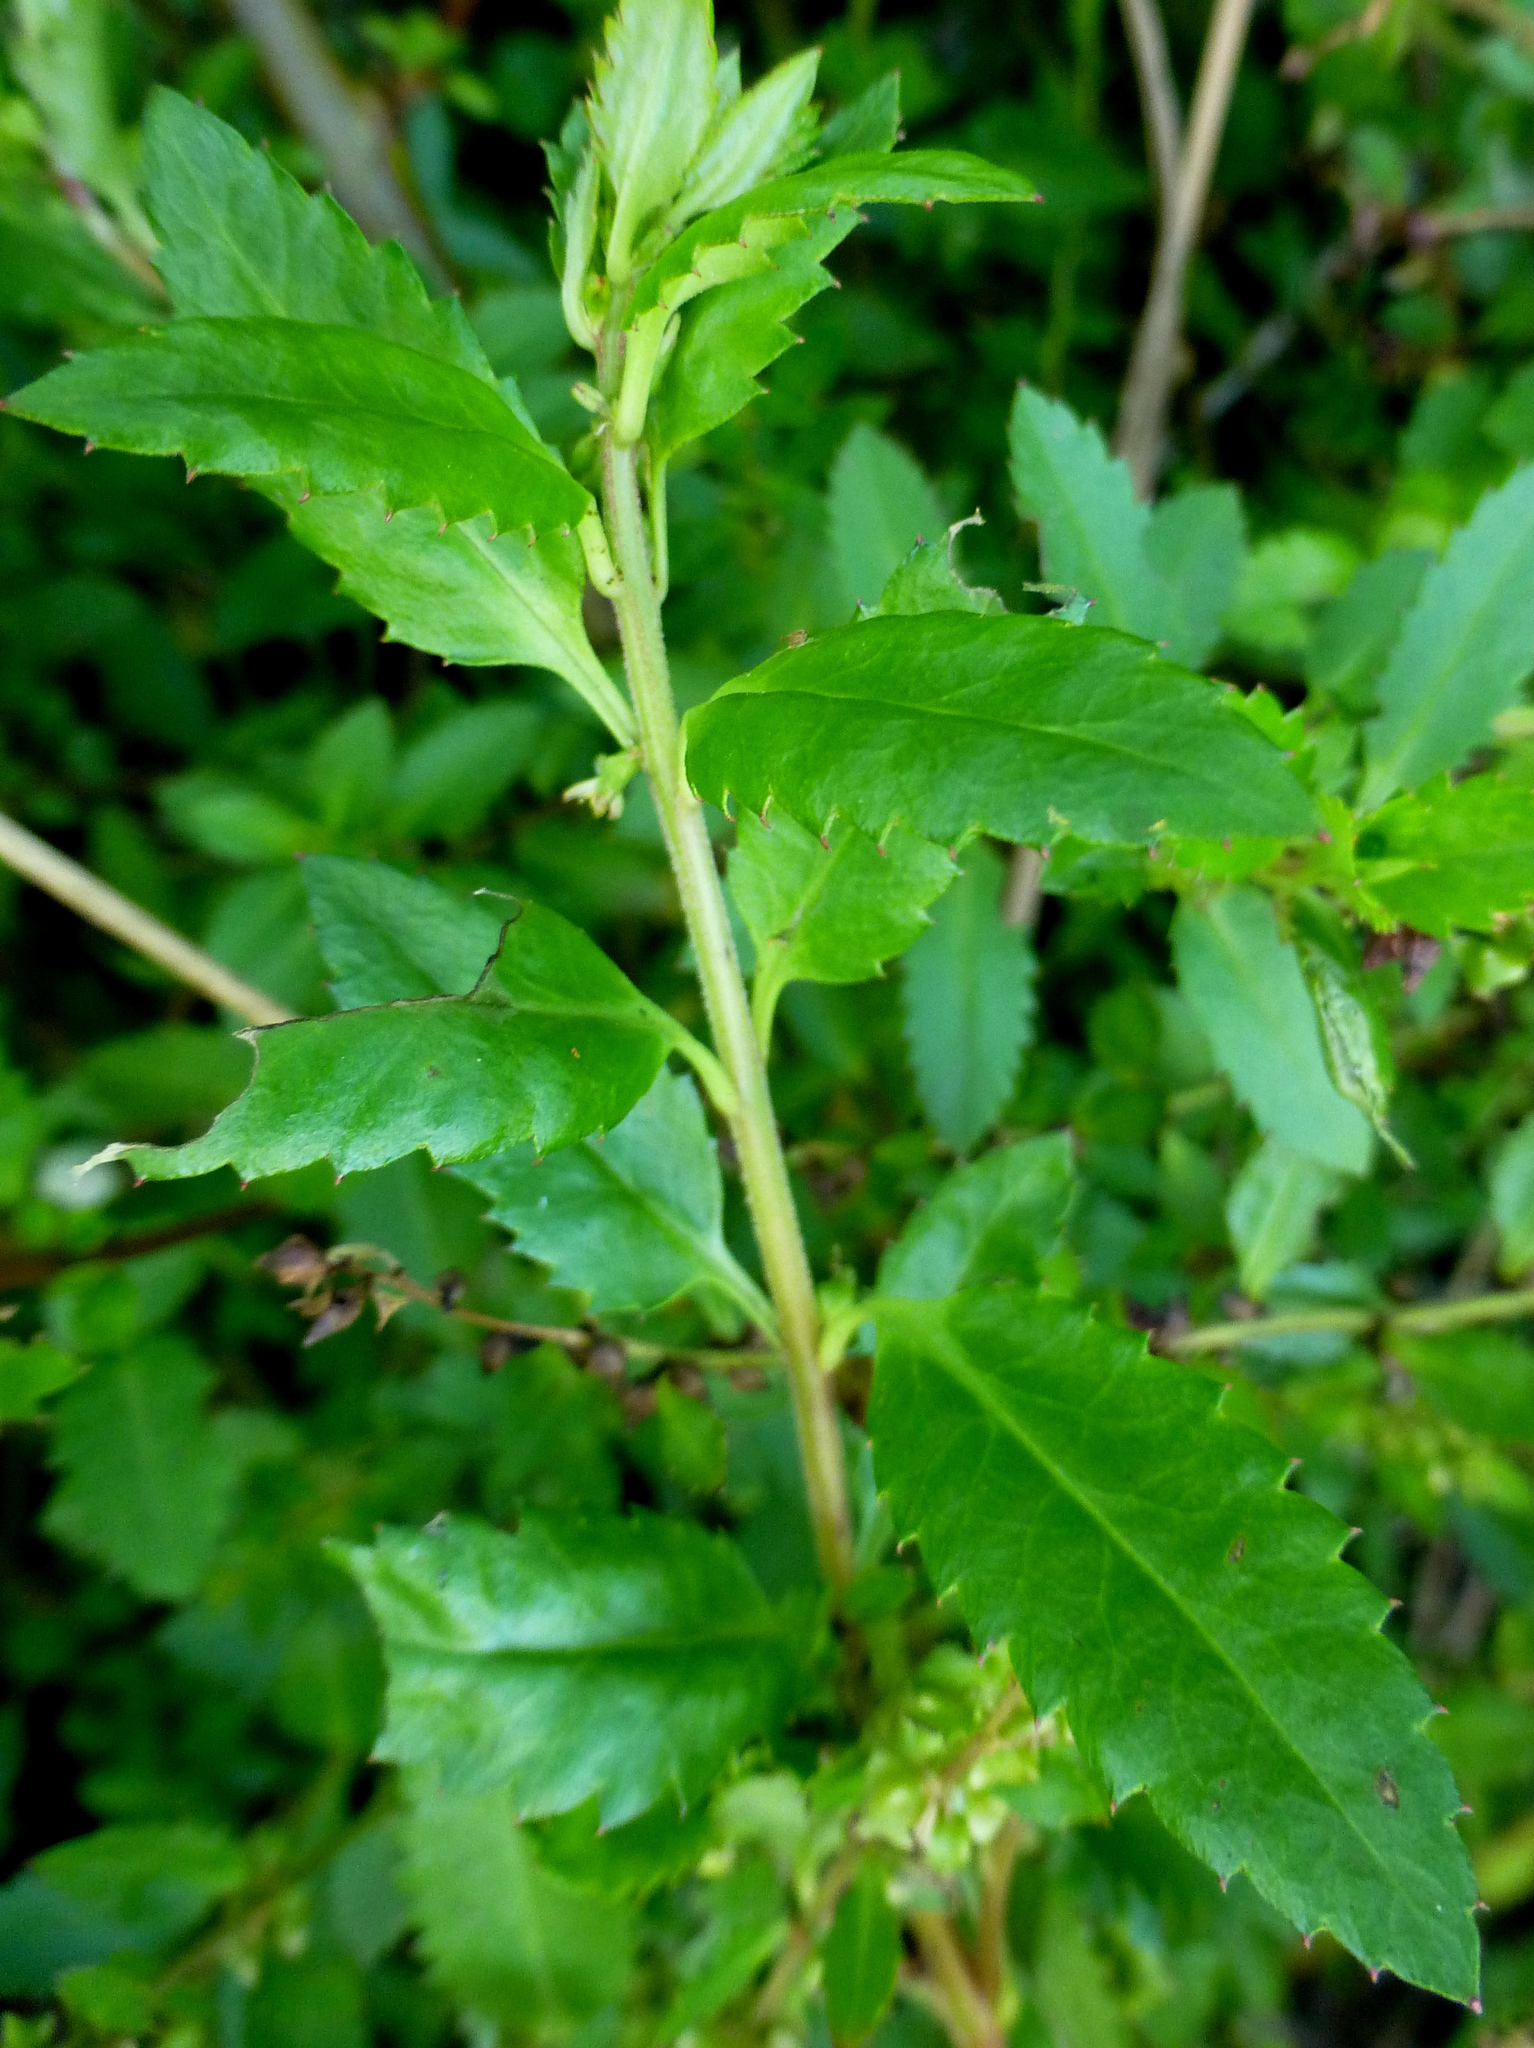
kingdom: Plantae
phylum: Tracheophyta
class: Magnoliopsida
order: Saxifragales
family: Haloragaceae
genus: Haloragis
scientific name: Haloragis erecta
